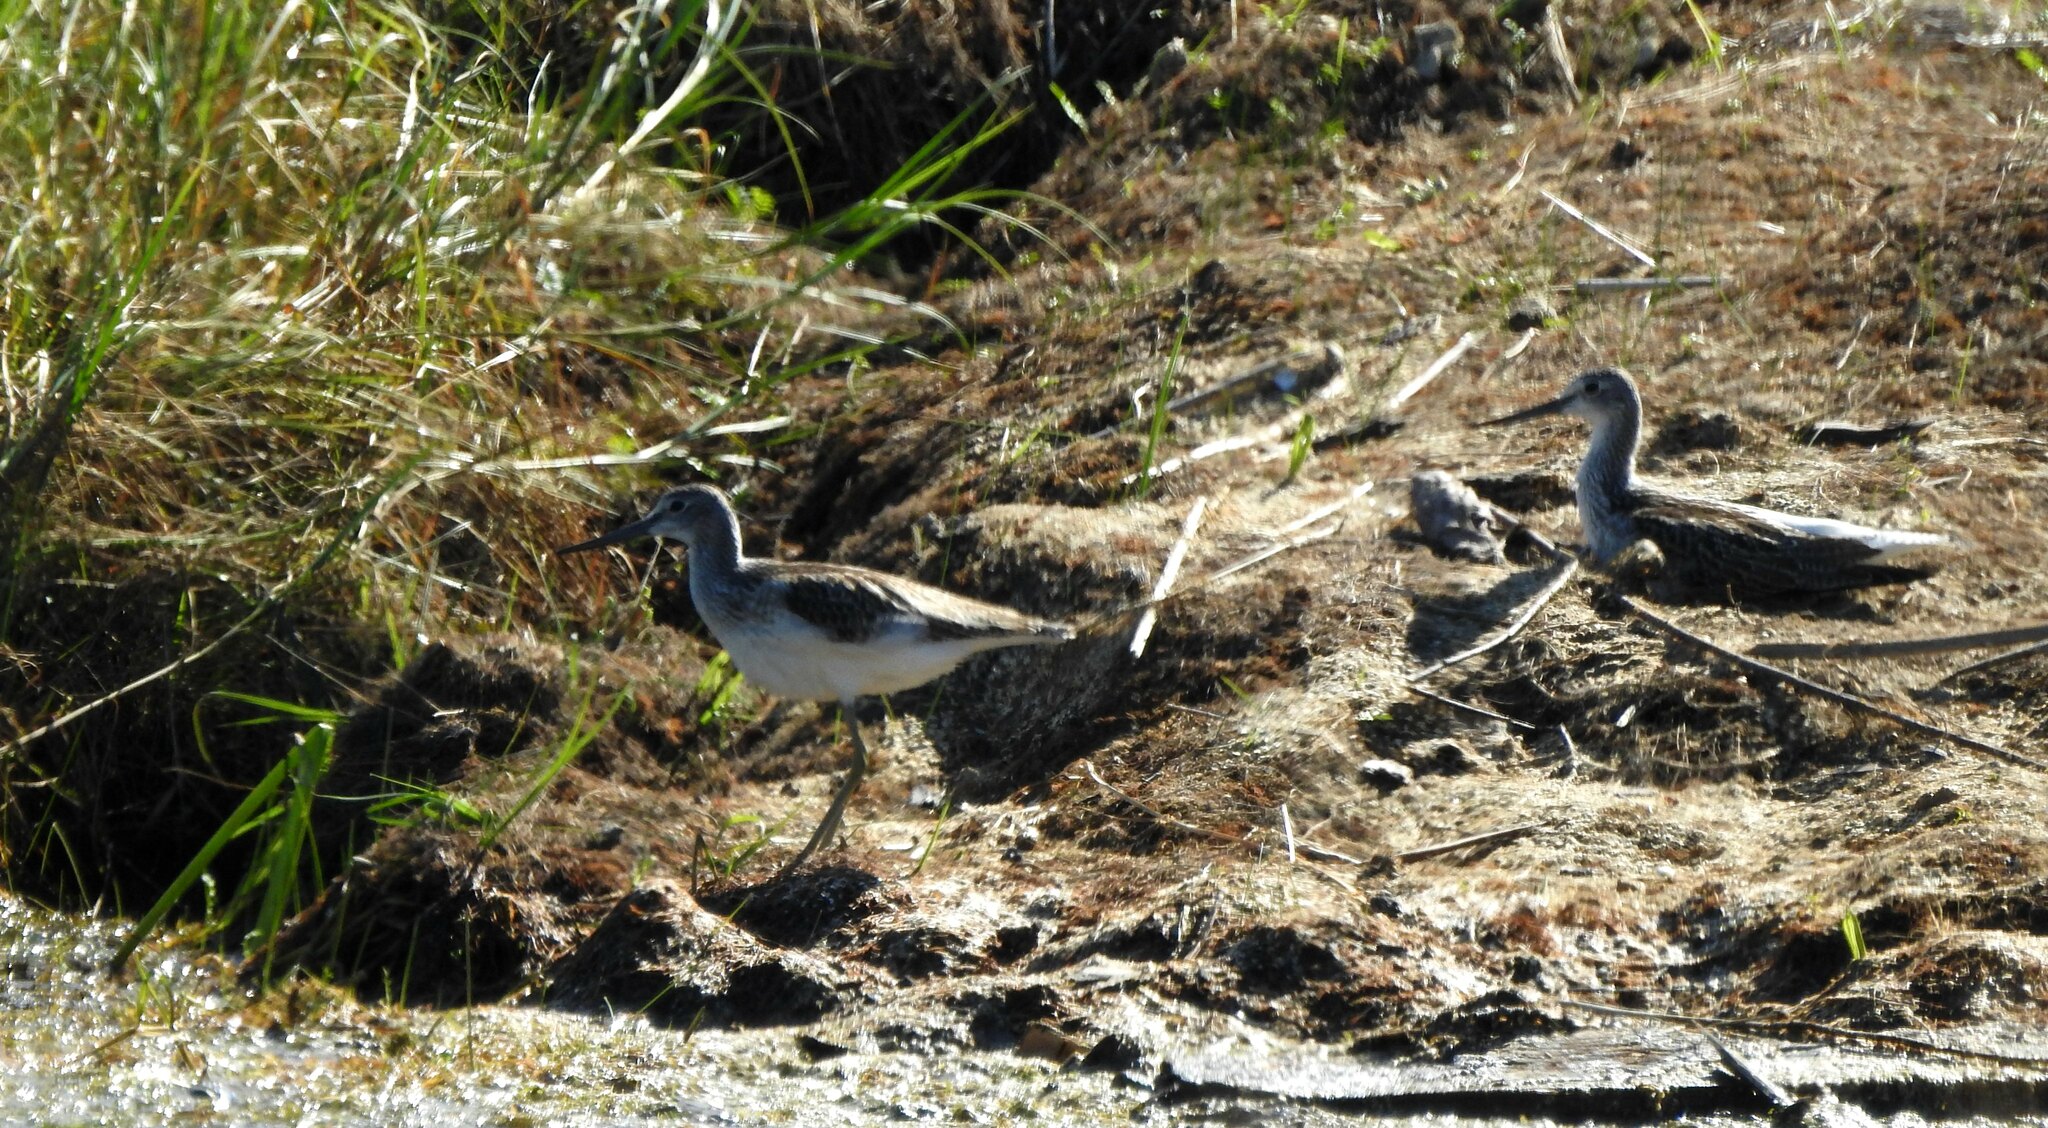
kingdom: Animalia
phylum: Chordata
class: Aves
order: Charadriiformes
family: Scolopacidae
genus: Tringa
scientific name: Tringa nebularia
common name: Common greenshank
